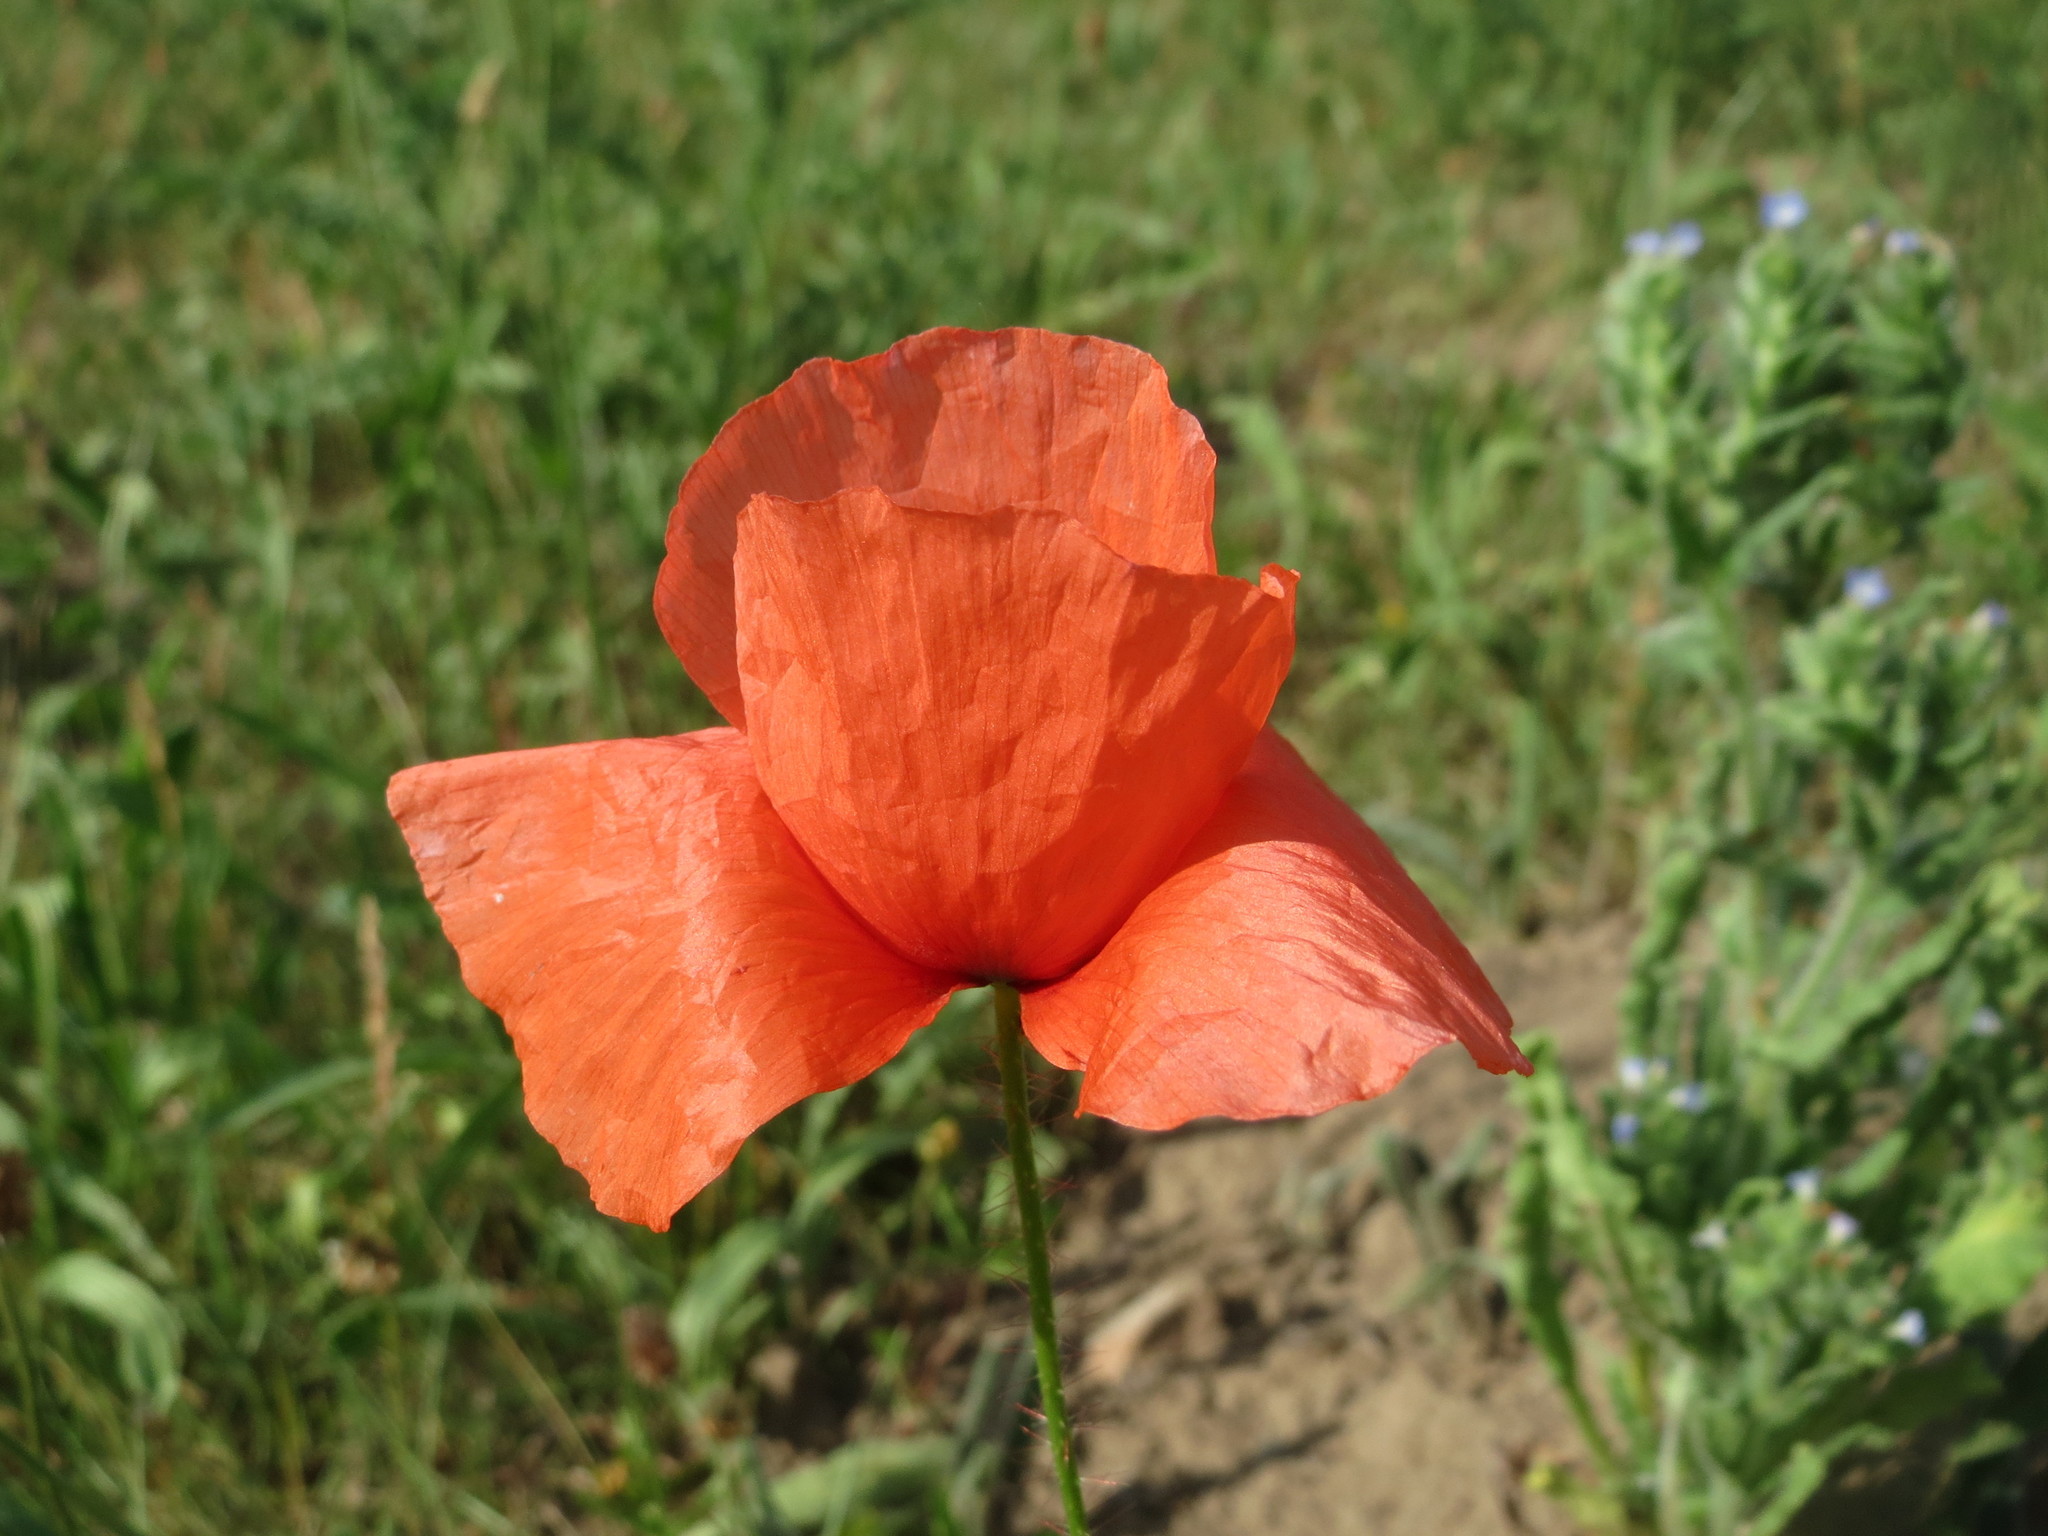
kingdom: Plantae
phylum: Tracheophyta
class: Magnoliopsida
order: Ranunculales
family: Papaveraceae
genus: Papaver
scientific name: Papaver rhoeas
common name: Corn poppy
